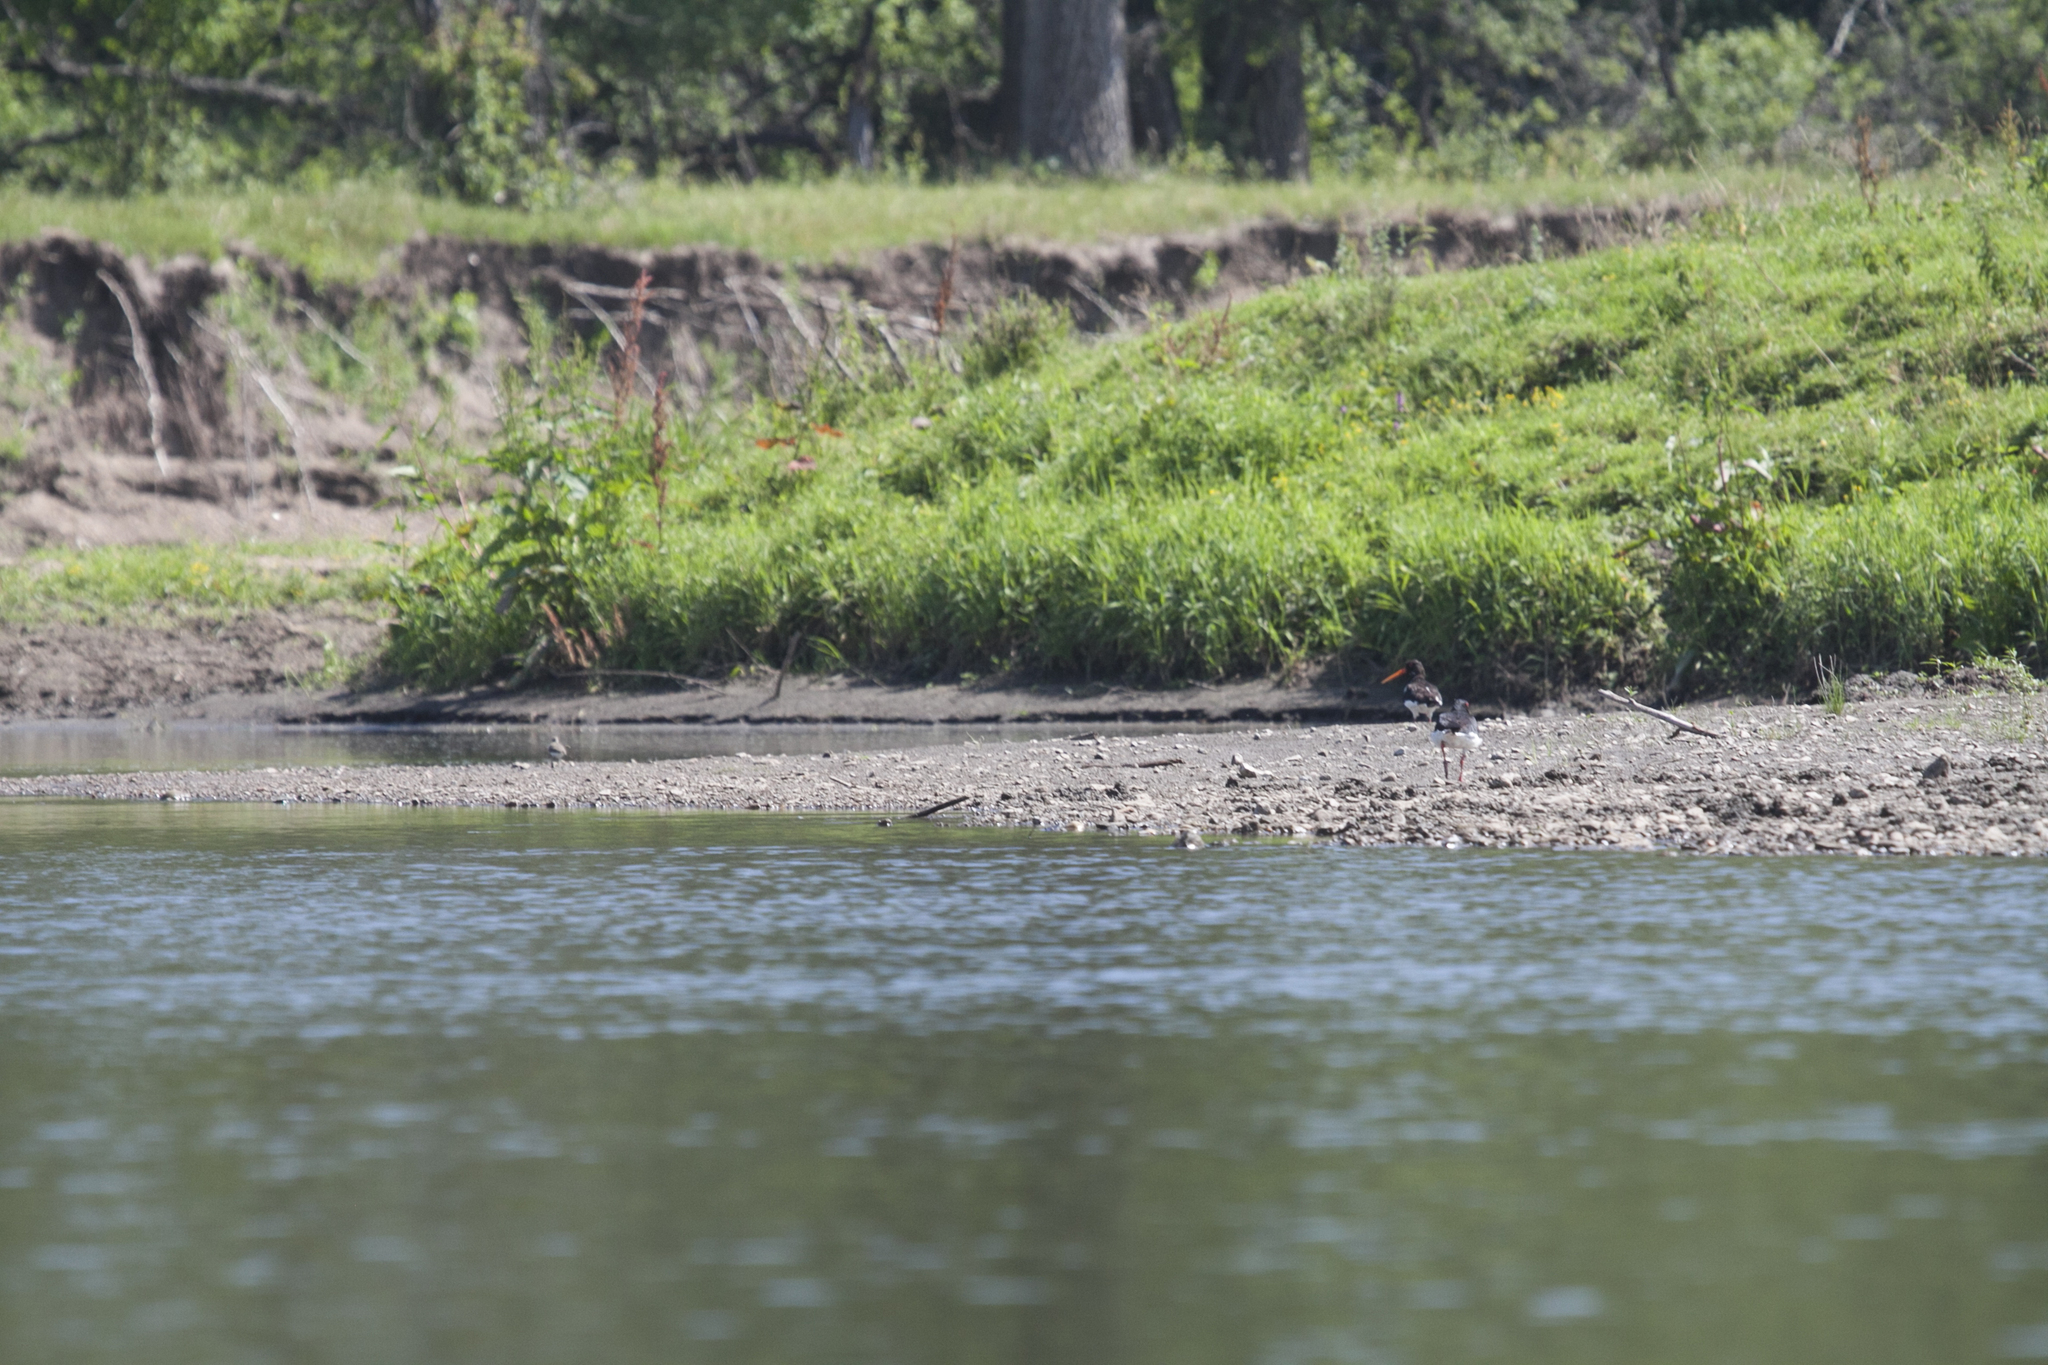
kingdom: Animalia
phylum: Chordata
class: Aves
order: Charadriiformes
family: Haematopodidae
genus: Haematopus
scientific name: Haematopus ostralegus
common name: Eurasian oystercatcher
